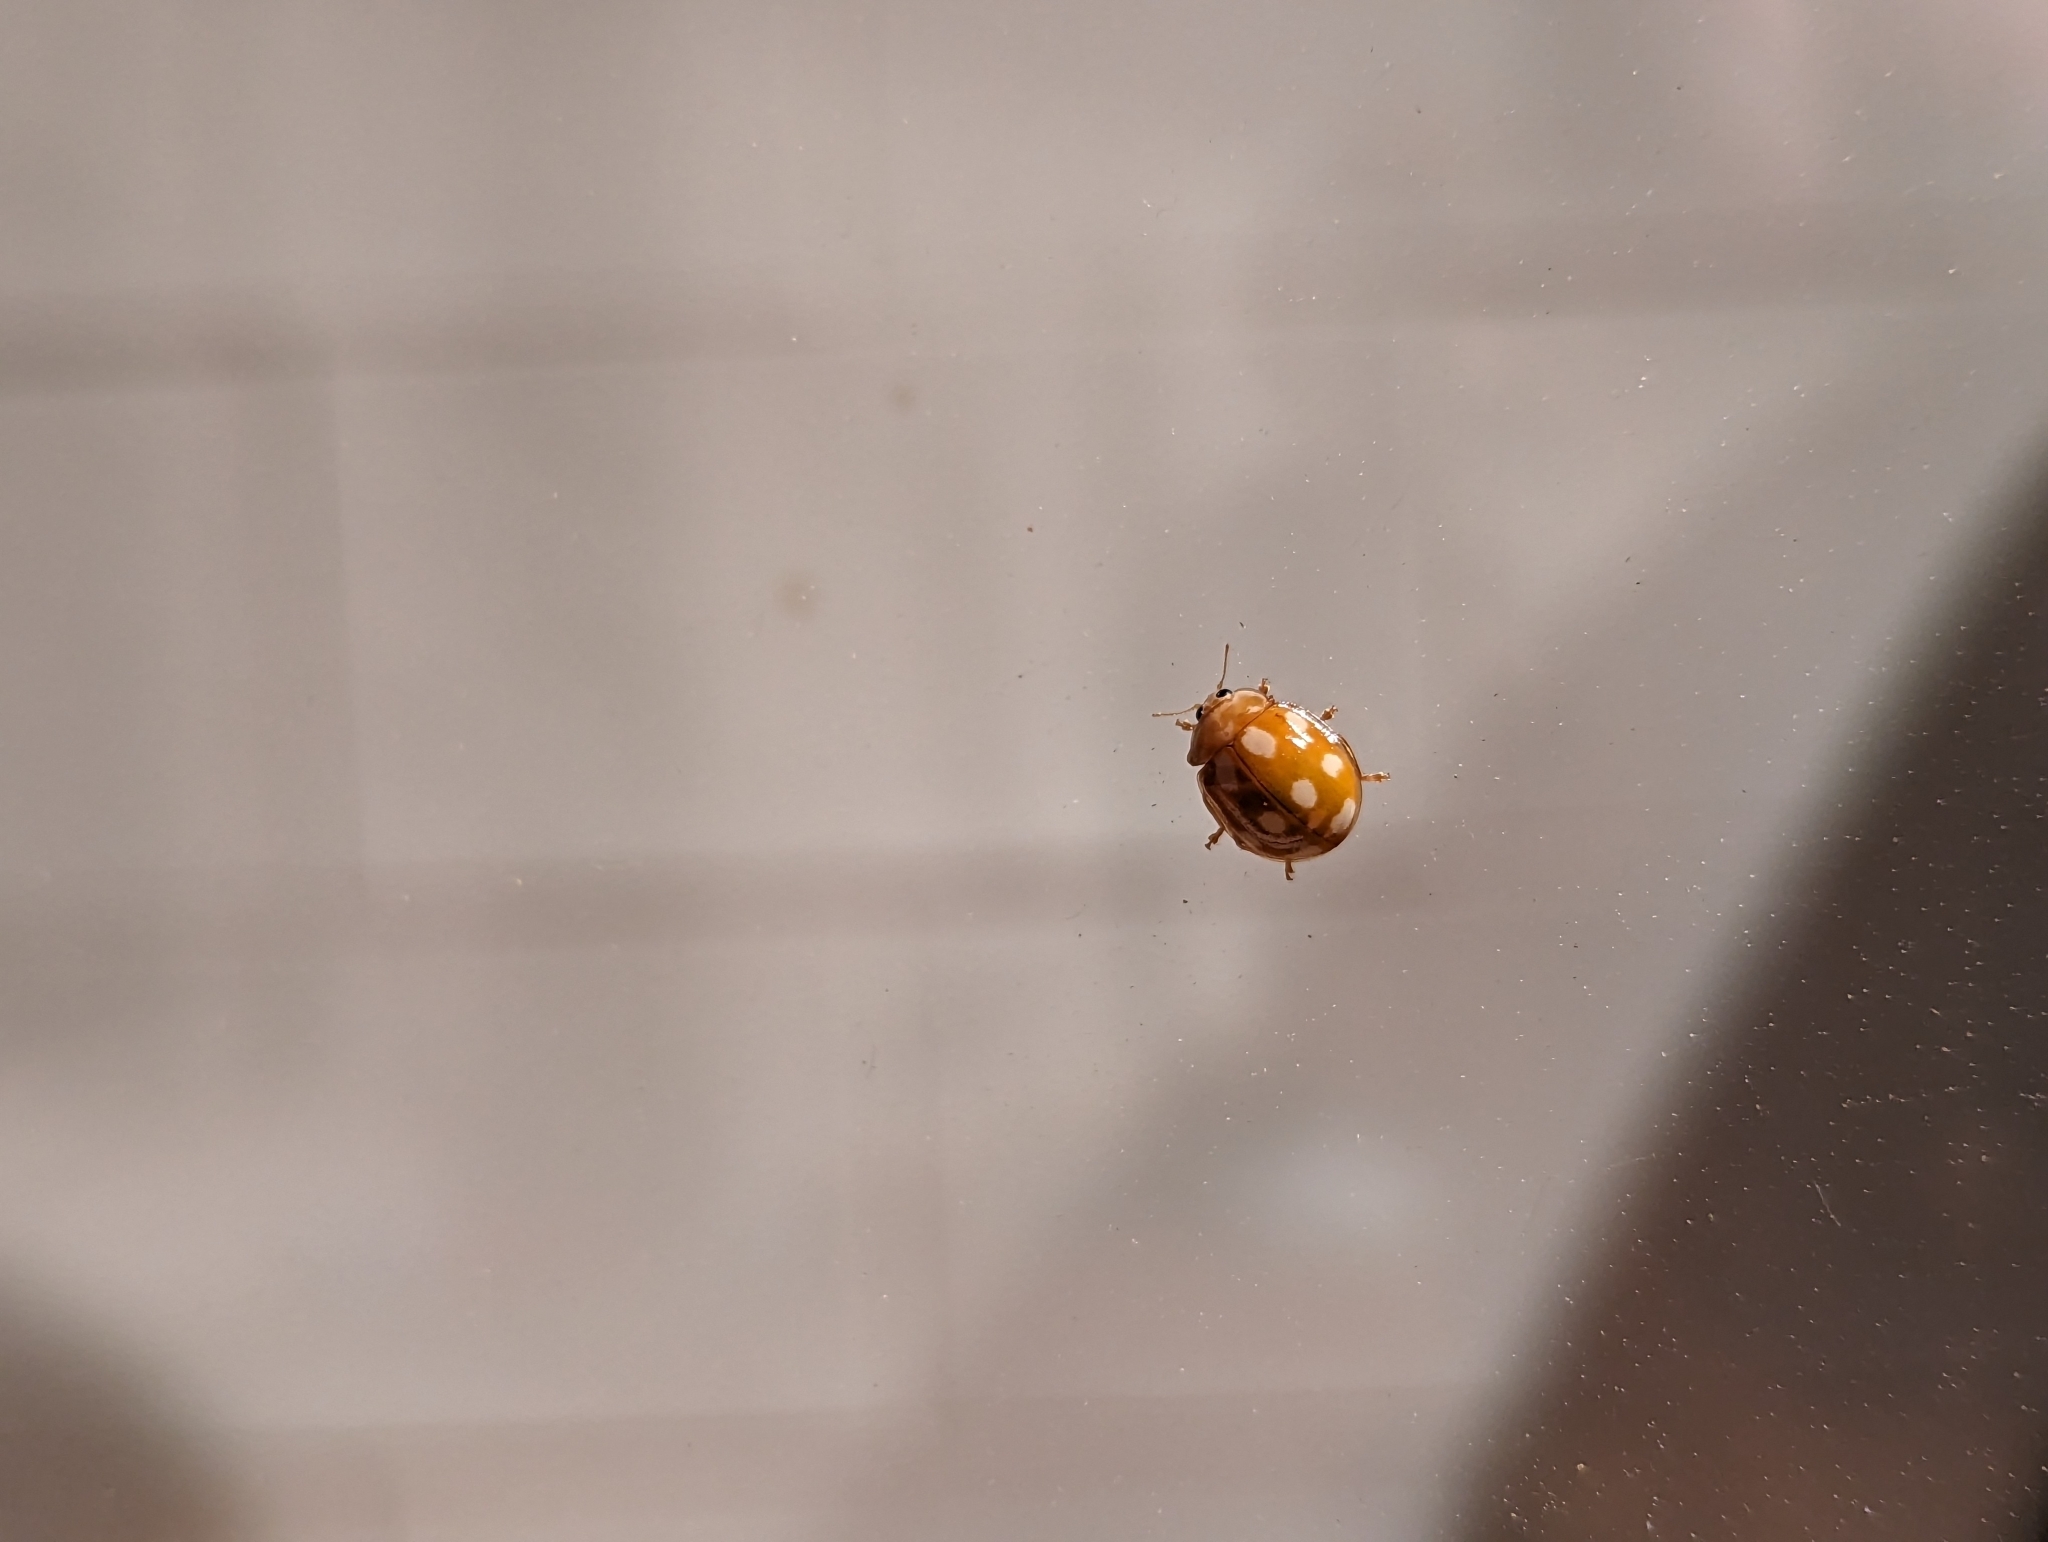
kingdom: Animalia
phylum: Arthropoda
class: Insecta
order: Coleoptera
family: Coccinellidae
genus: Calvia
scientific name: Calvia decemguttata
